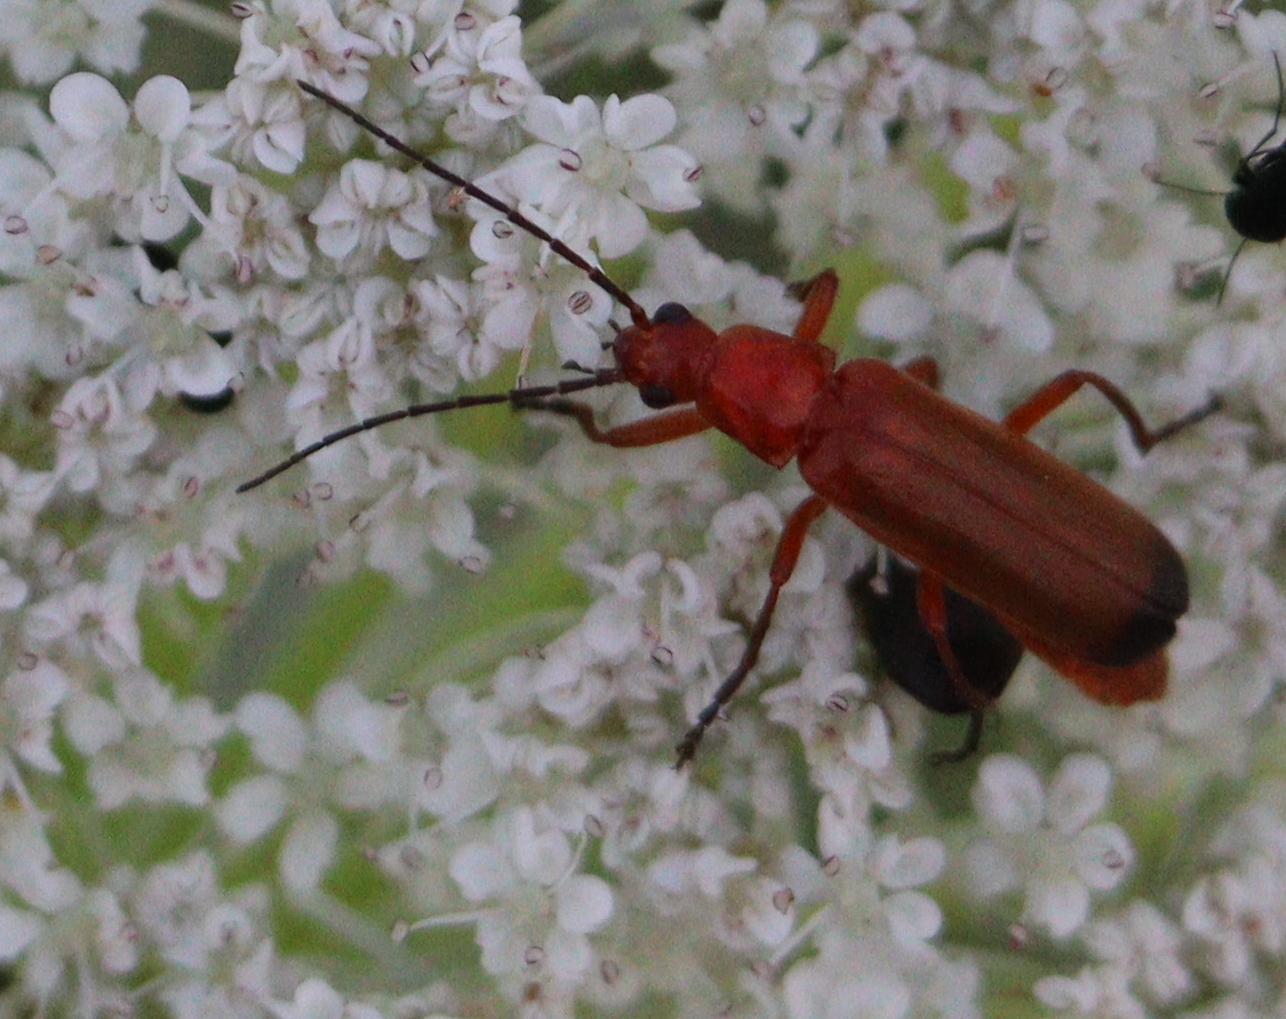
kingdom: Animalia
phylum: Arthropoda
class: Insecta
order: Coleoptera
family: Cantharidae
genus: Rhagonycha
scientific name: Rhagonycha fulva
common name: Common red soldier beetle
